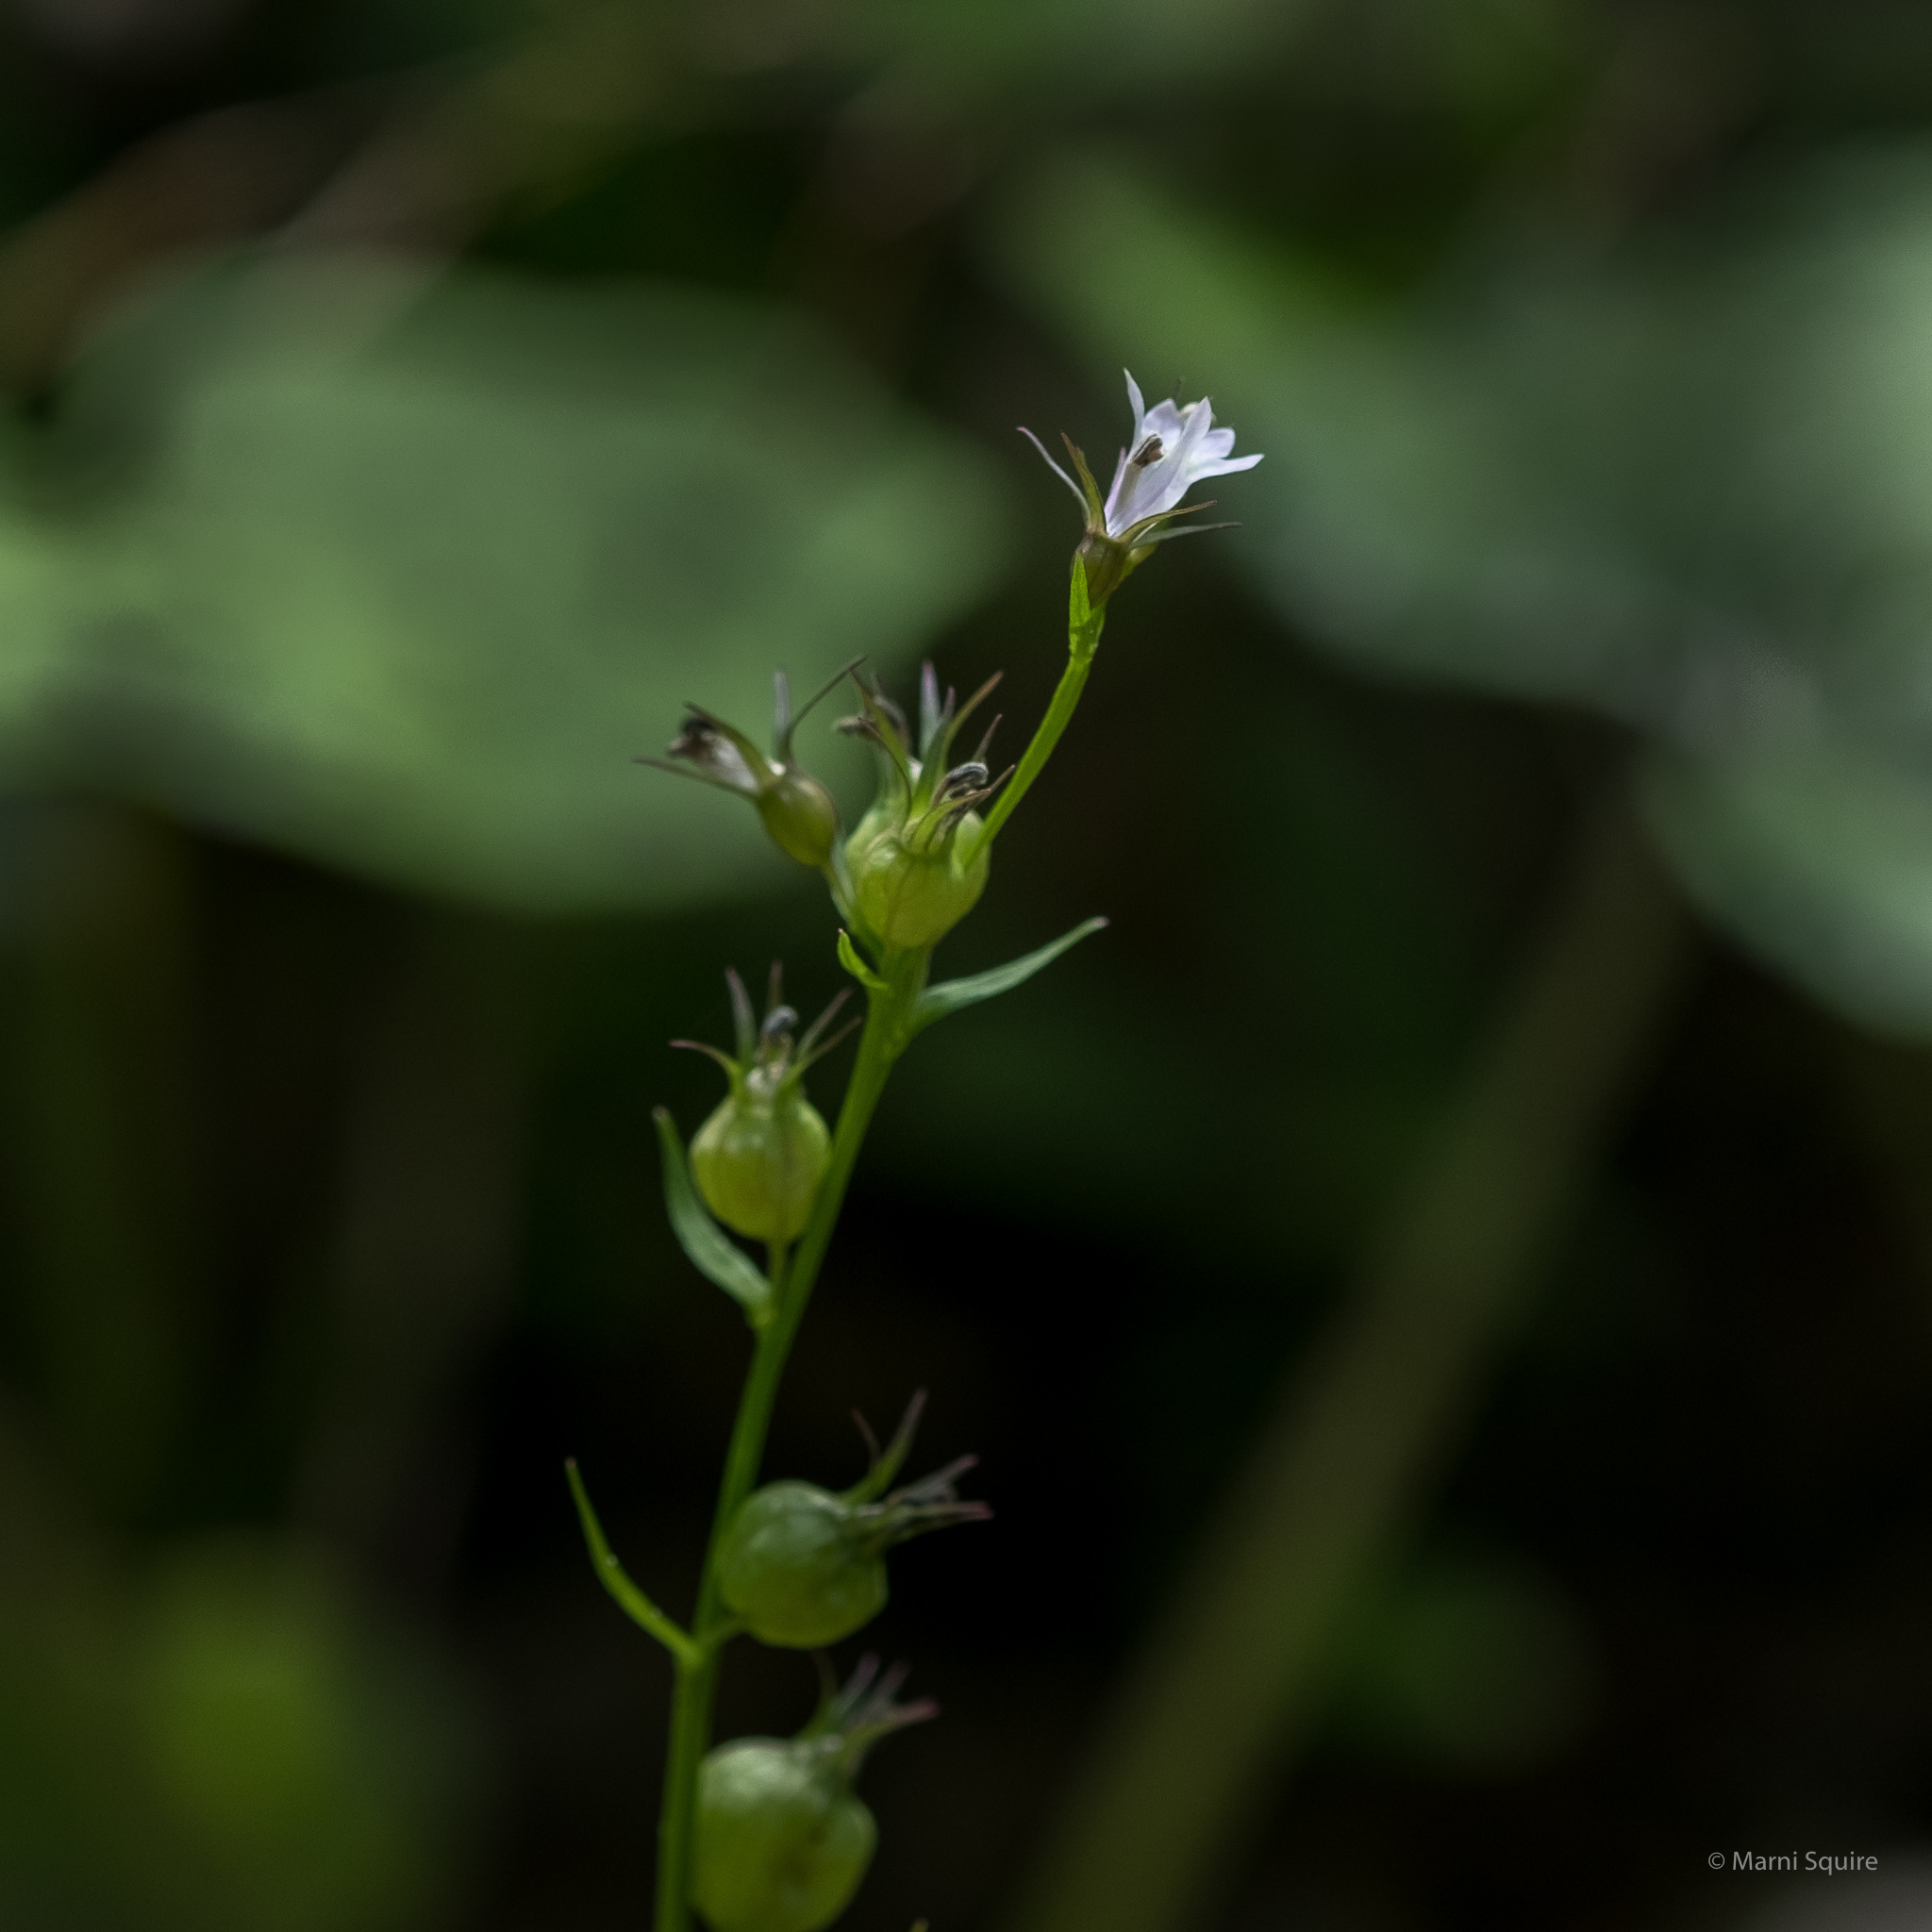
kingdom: Plantae
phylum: Tracheophyta
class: Magnoliopsida
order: Asterales
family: Campanulaceae
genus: Lobelia
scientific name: Lobelia inflata
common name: Indian tobacco
